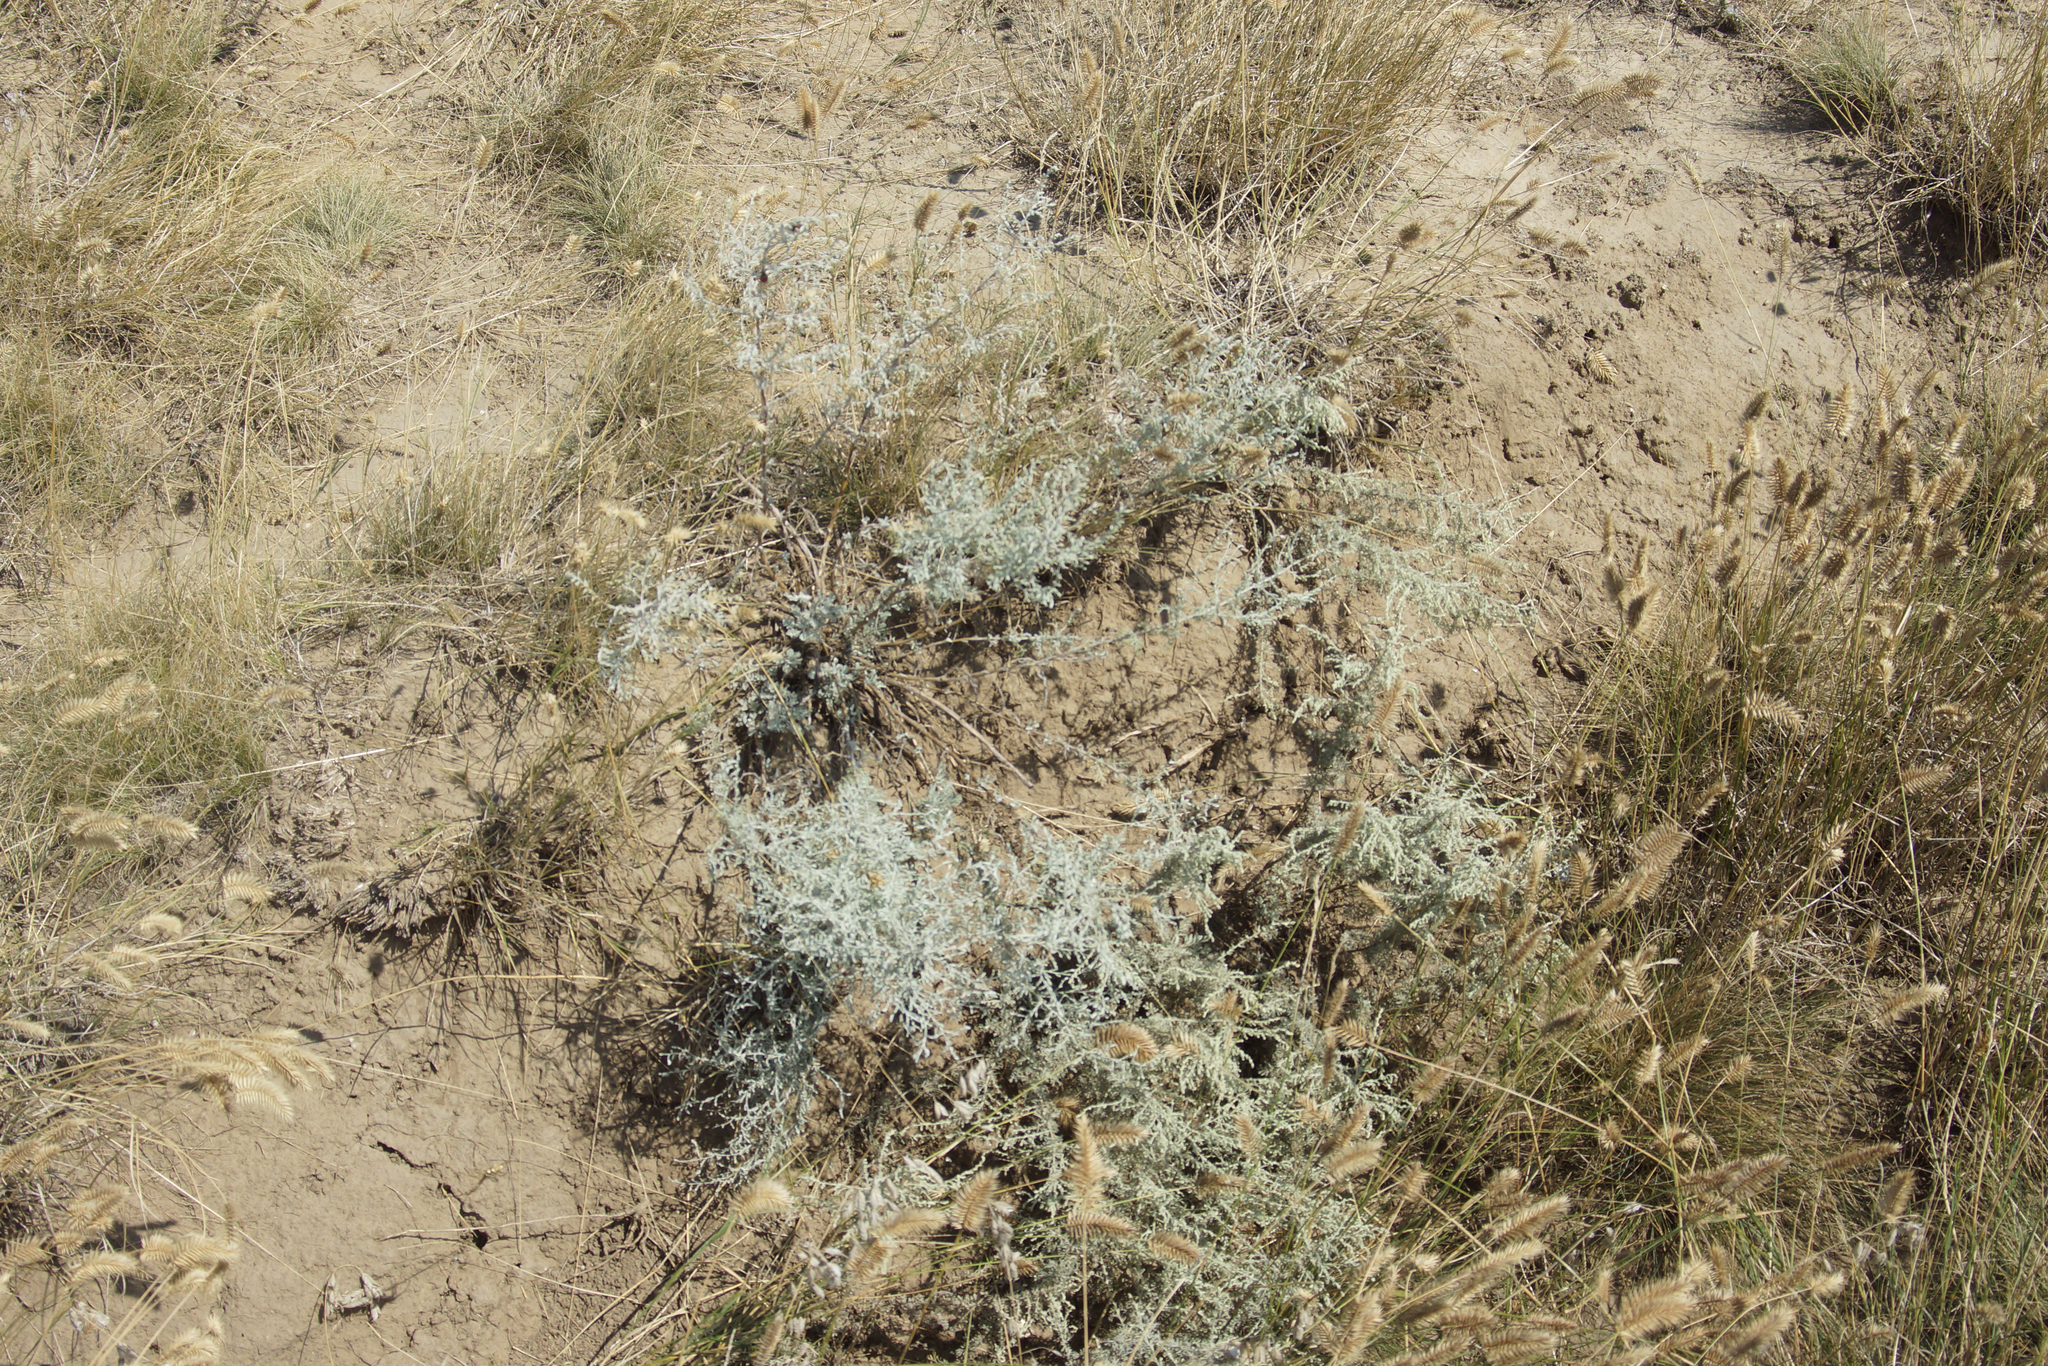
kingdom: Plantae
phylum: Tracheophyta
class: Magnoliopsida
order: Asterales
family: Asteraceae
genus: Artemisia
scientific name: Artemisia austriaca
